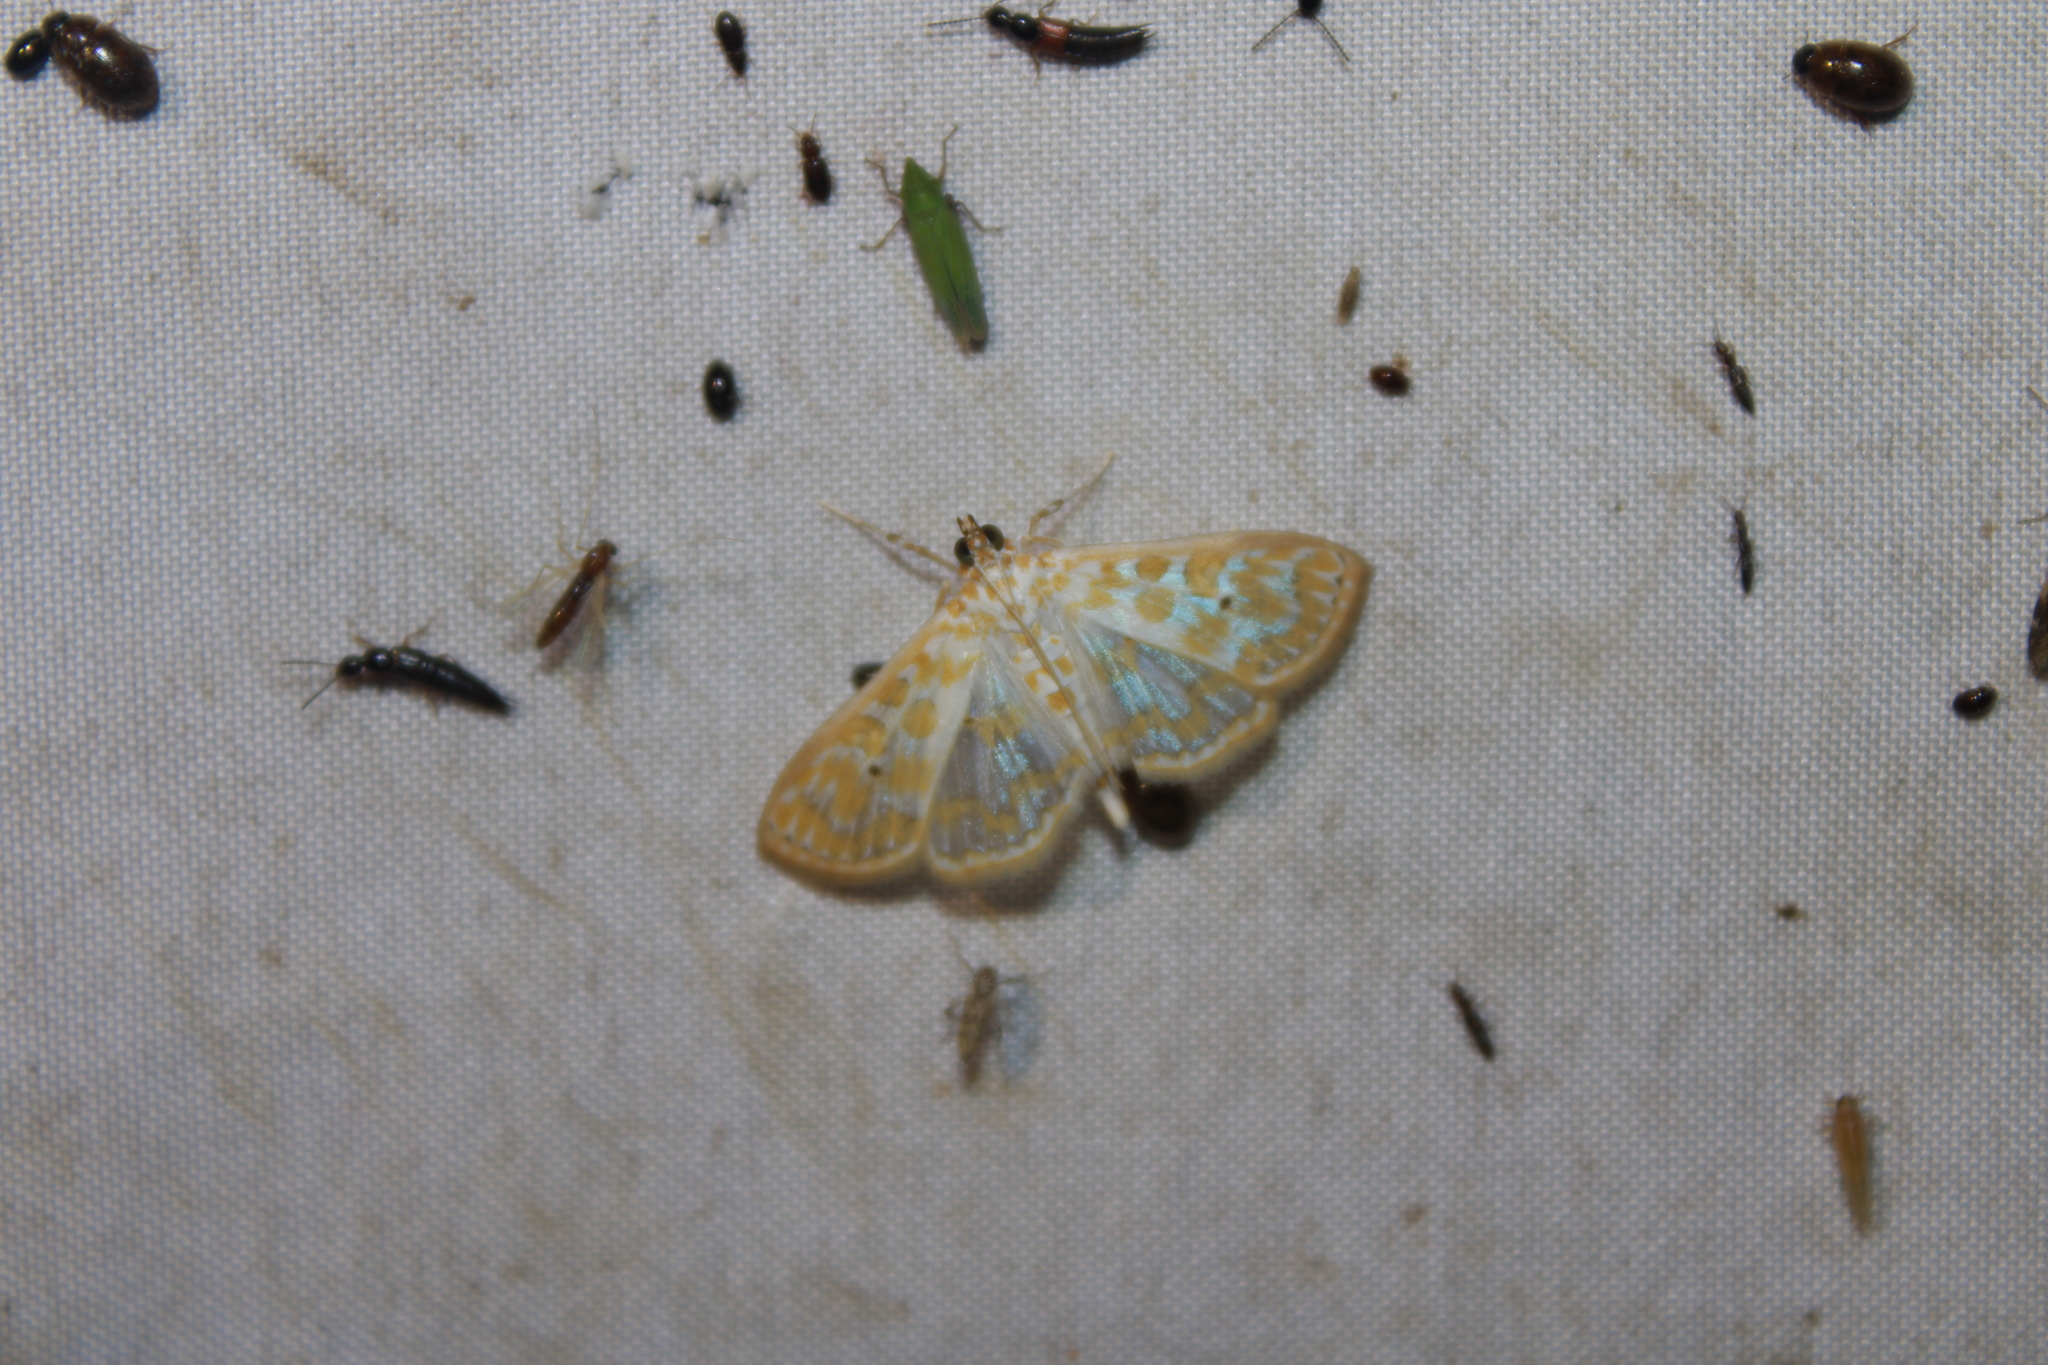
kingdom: Animalia
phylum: Arthropoda
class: Insecta
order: Lepidoptera
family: Crambidae
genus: Leucochroma
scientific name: Leucochroma corope
